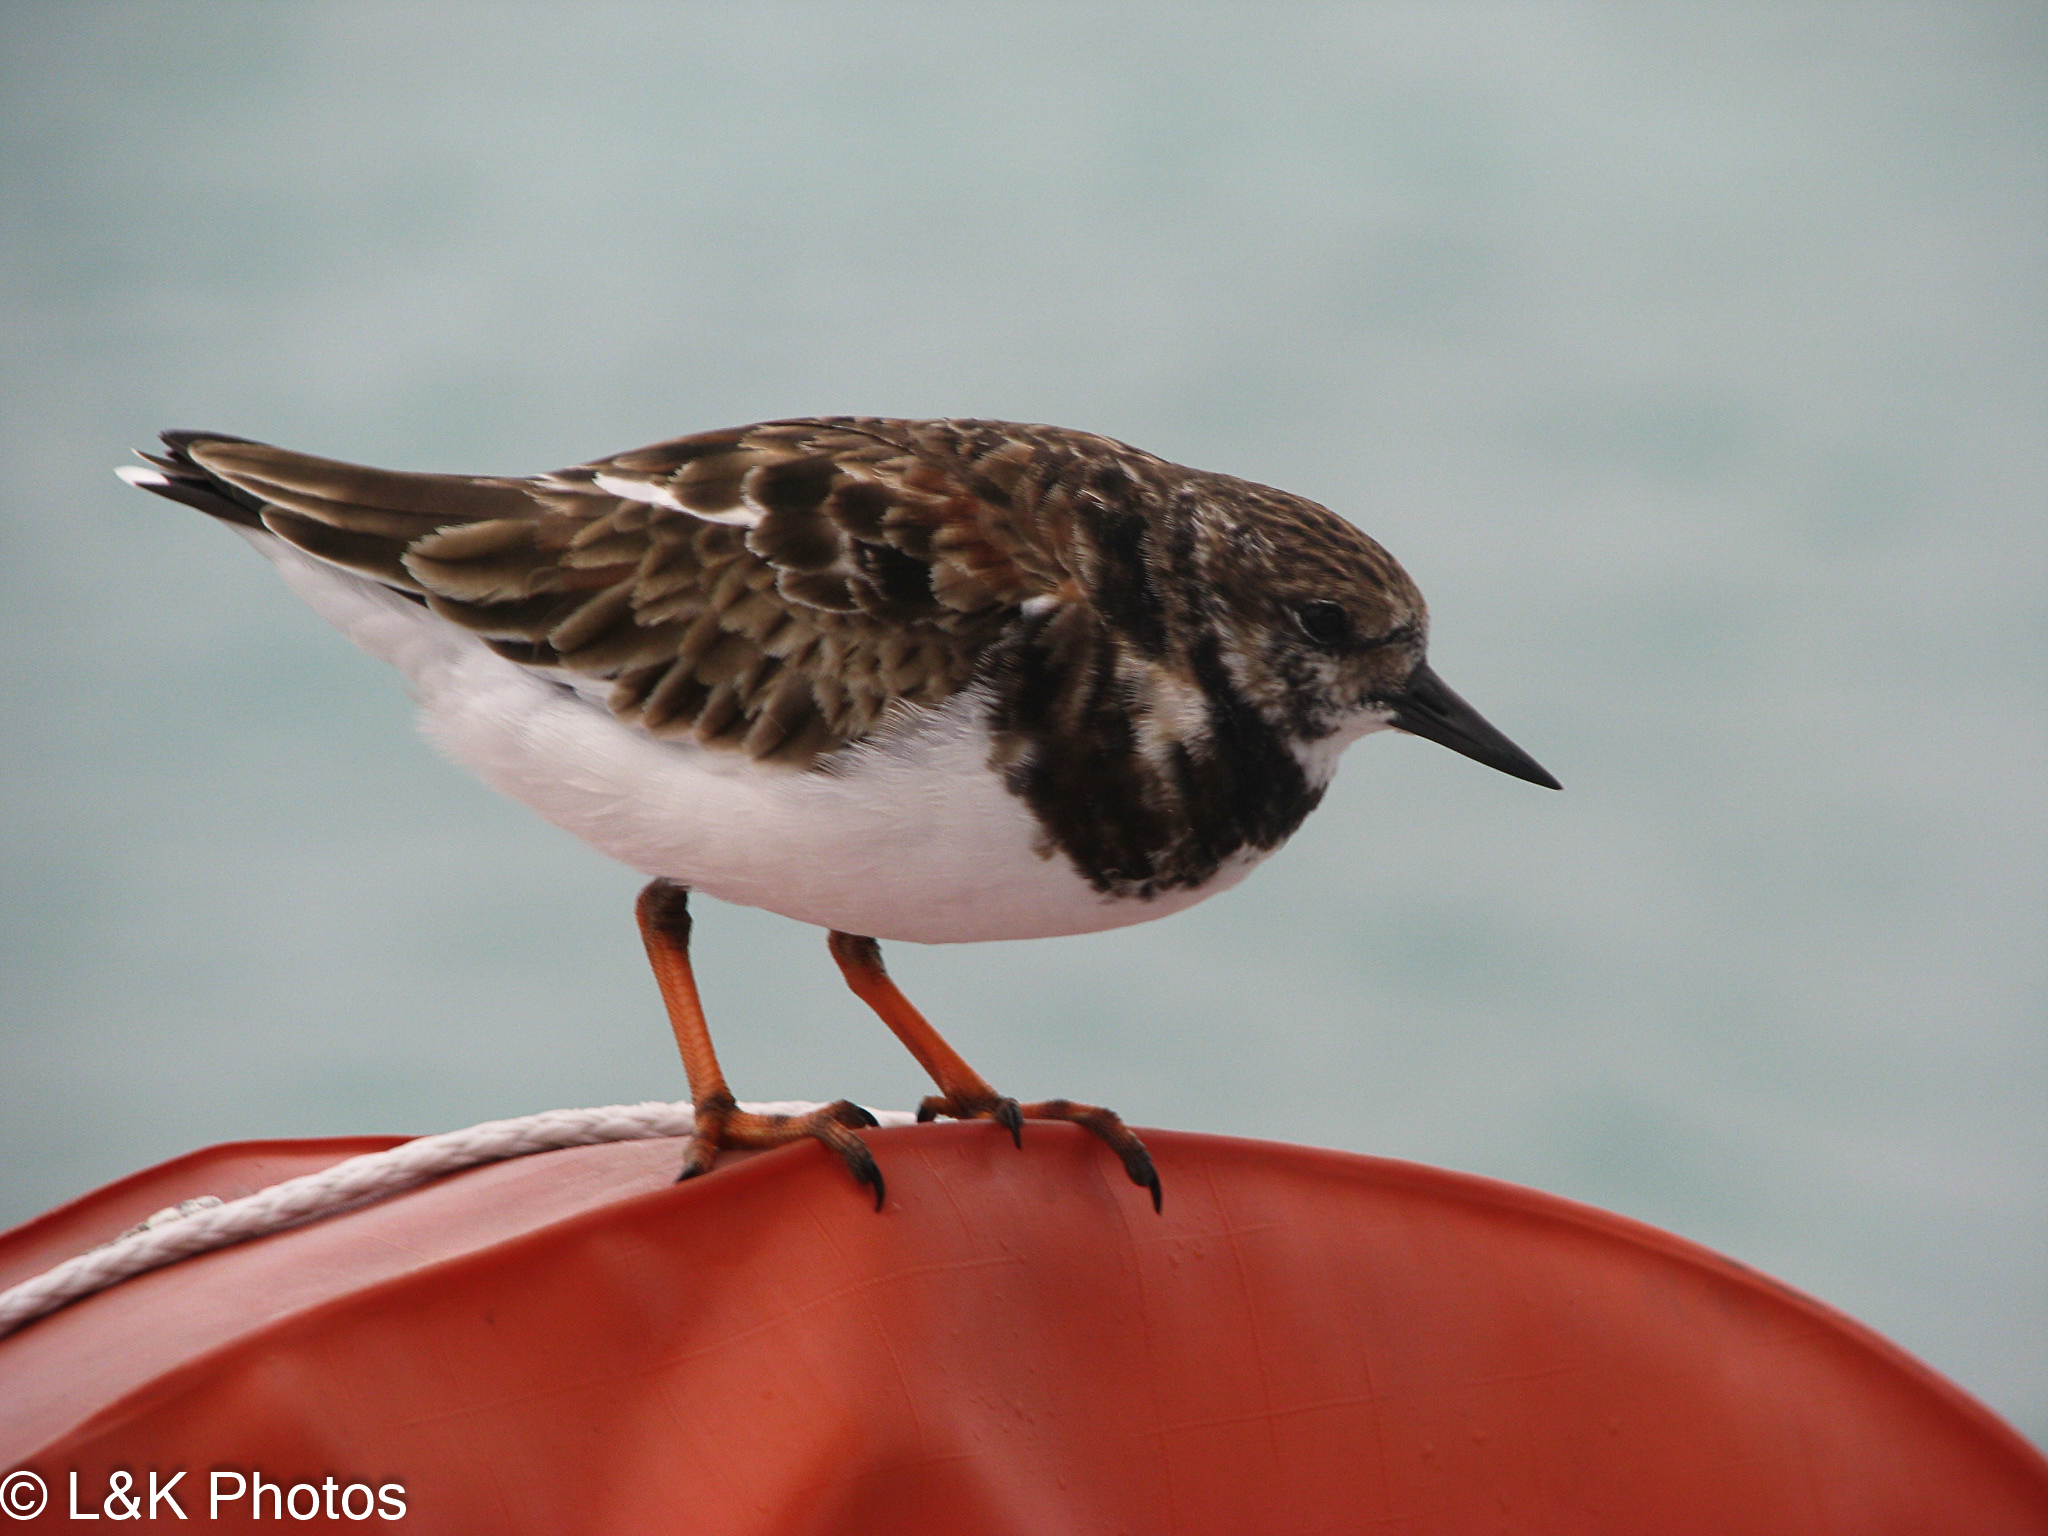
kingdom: Animalia
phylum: Chordata
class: Aves
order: Charadriiformes
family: Scolopacidae
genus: Arenaria
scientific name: Arenaria interpres
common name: Ruddy turnstone
